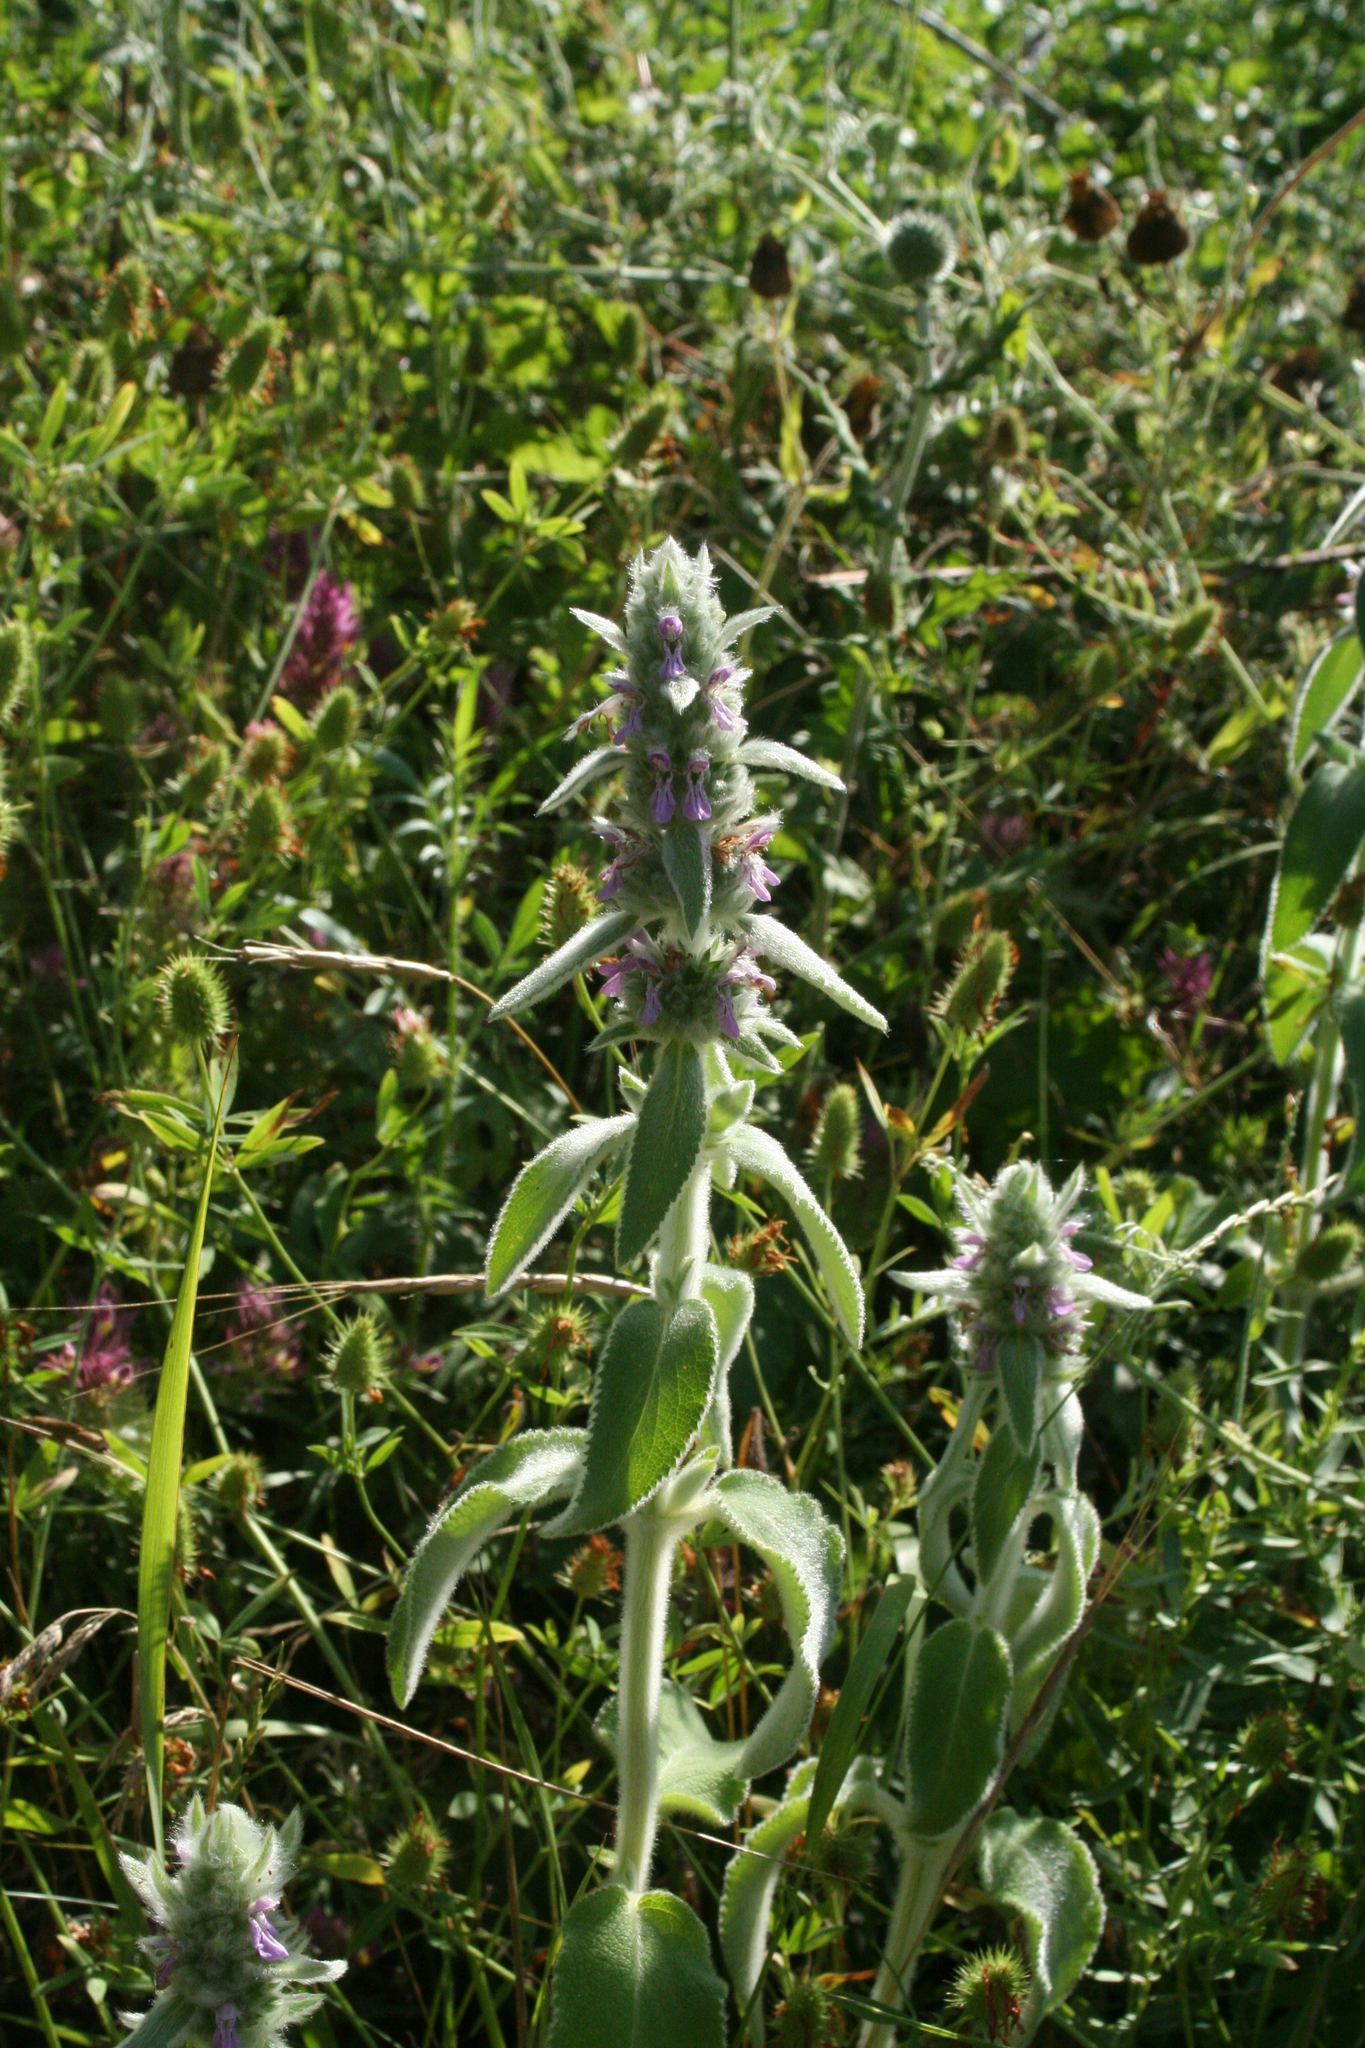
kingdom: Plantae
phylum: Tracheophyta
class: Magnoliopsida
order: Lamiales
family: Lamiaceae
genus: Stachys
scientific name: Stachys byzantina
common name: Lamb's-ear
